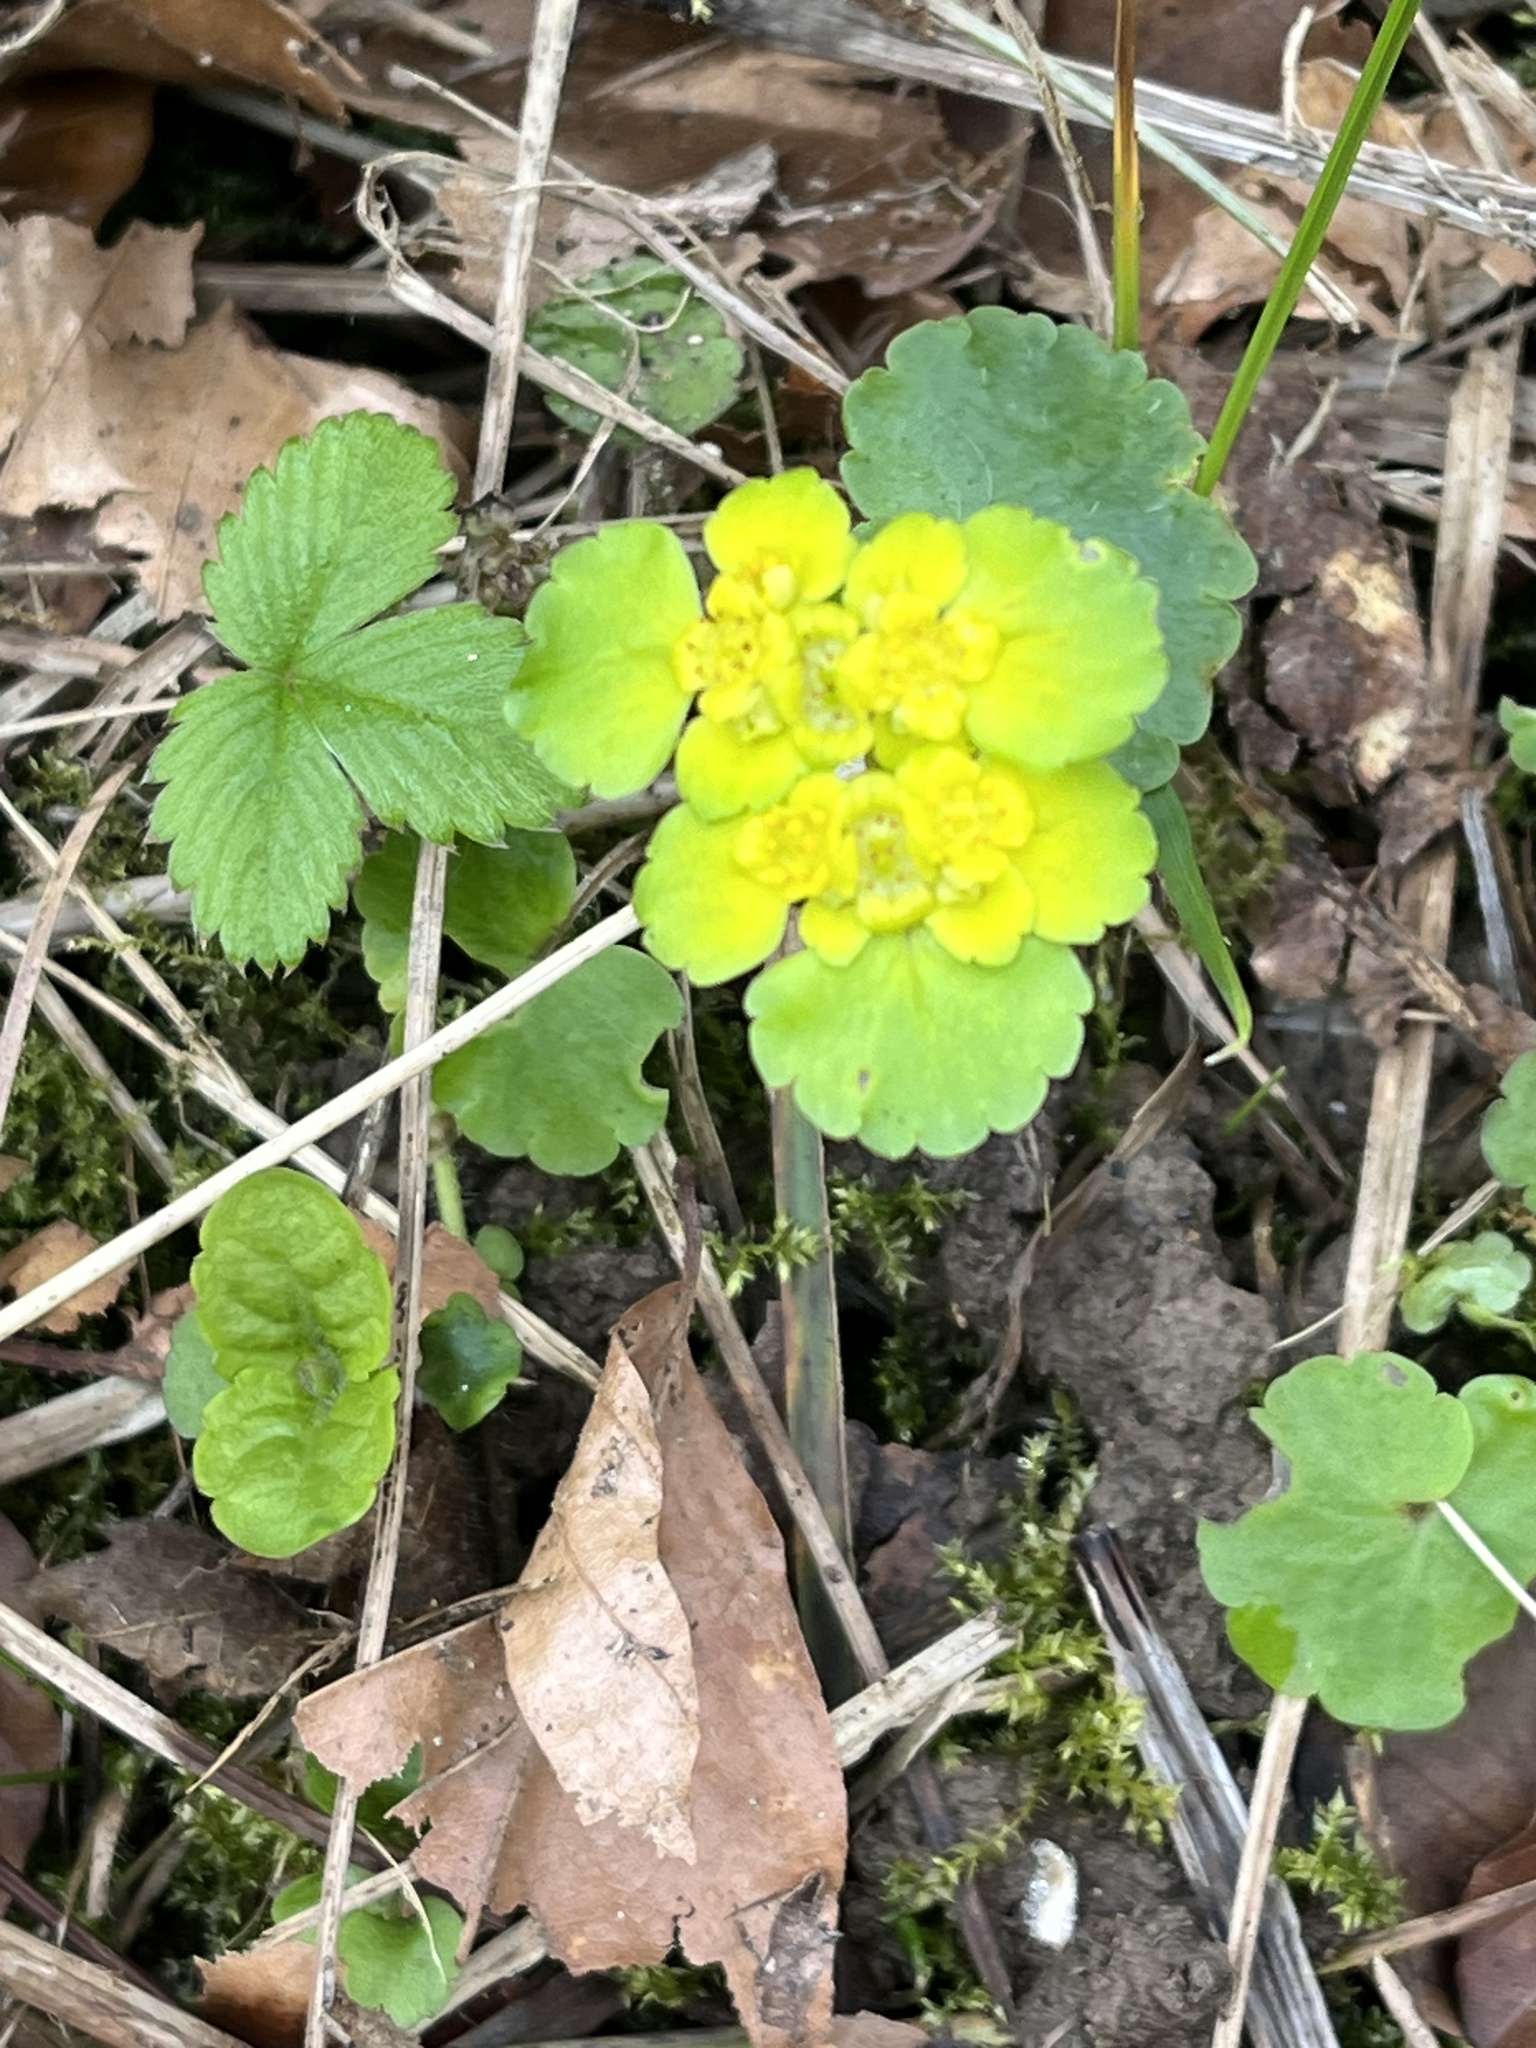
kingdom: Plantae
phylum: Tracheophyta
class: Magnoliopsida
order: Saxifragales
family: Saxifragaceae
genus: Chrysosplenium
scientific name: Chrysosplenium alternifolium
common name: Alternate-leaved golden-saxifrage
